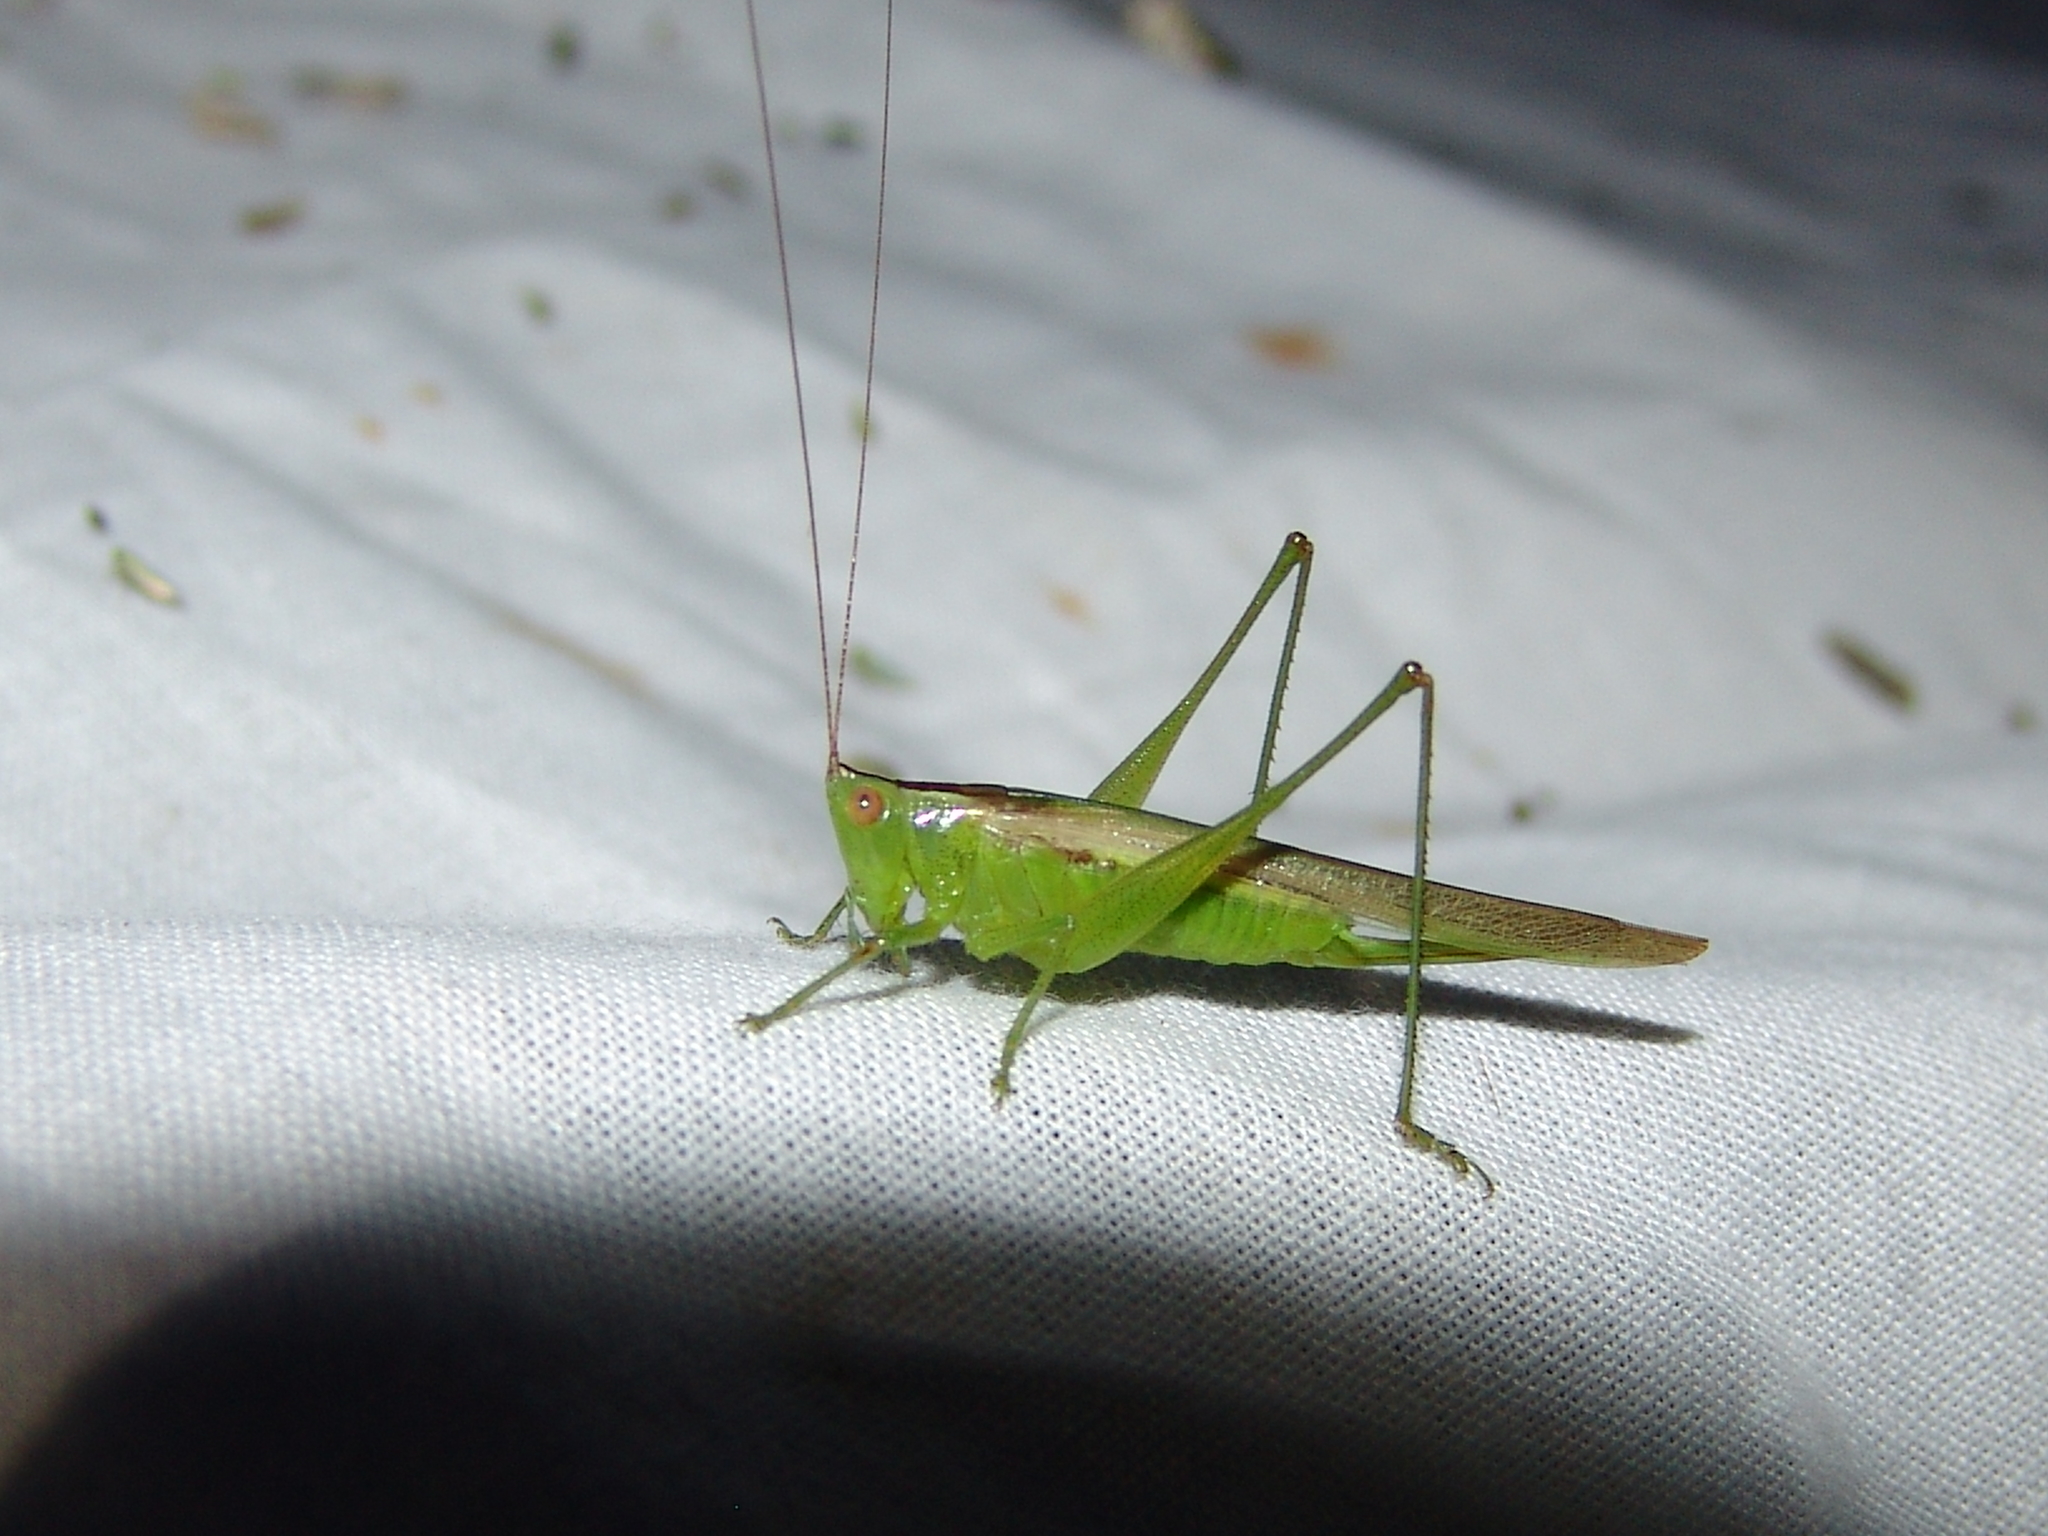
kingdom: Animalia
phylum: Arthropoda
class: Insecta
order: Orthoptera
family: Tettigoniidae
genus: Conocephalus
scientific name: Conocephalus fasciatus
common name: Slender meadow katydid
